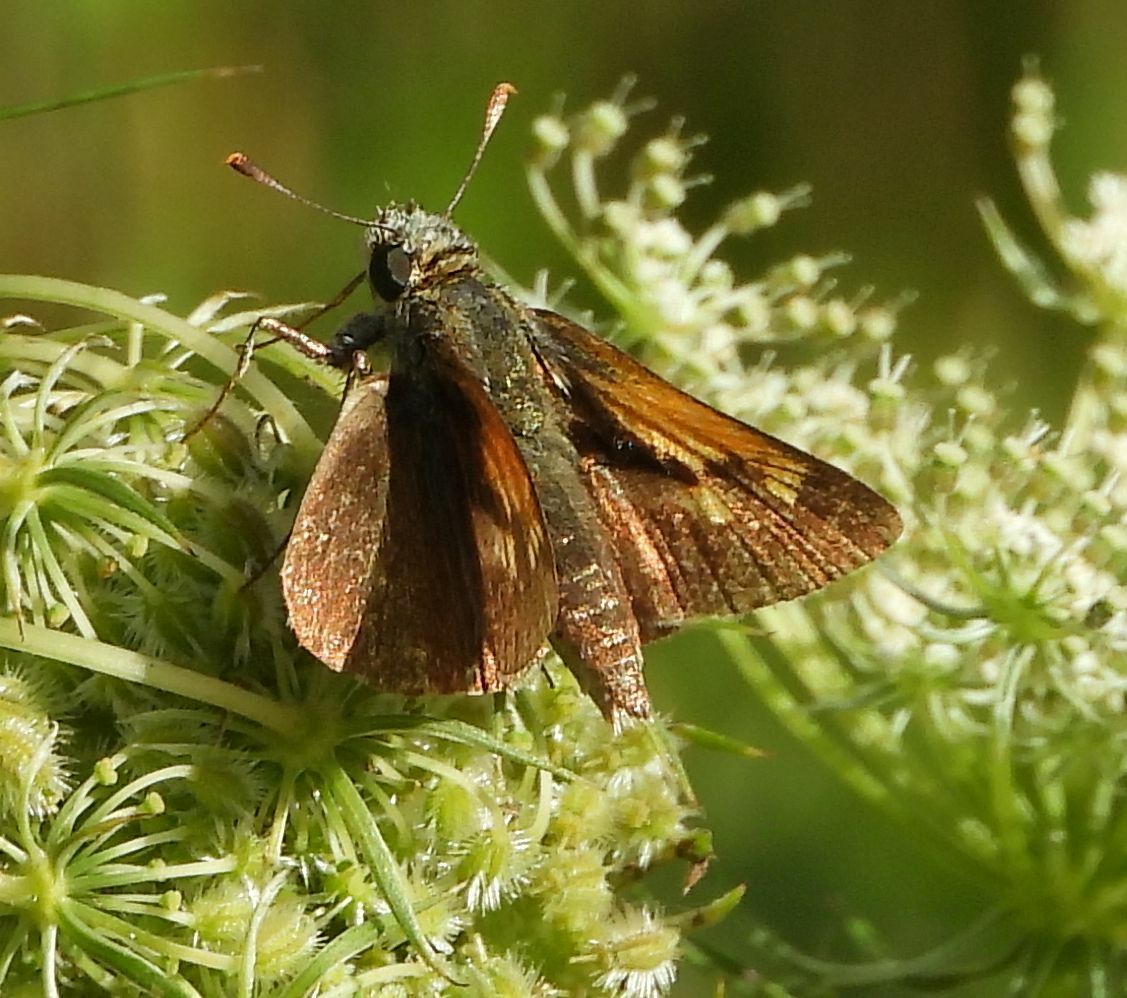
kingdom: Animalia
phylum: Arthropoda
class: Insecta
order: Lepidoptera
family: Hesperiidae
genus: Polites
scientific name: Polites themistocles
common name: Tawny-edged skipper
